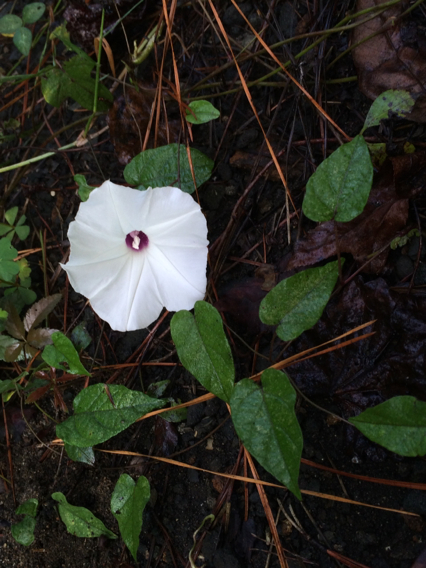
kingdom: Plantae
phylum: Tracheophyta
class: Magnoliopsida
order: Solanales
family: Convolvulaceae
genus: Ipomoea
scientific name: Ipomoea pandurata
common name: Man-of-the-earth
